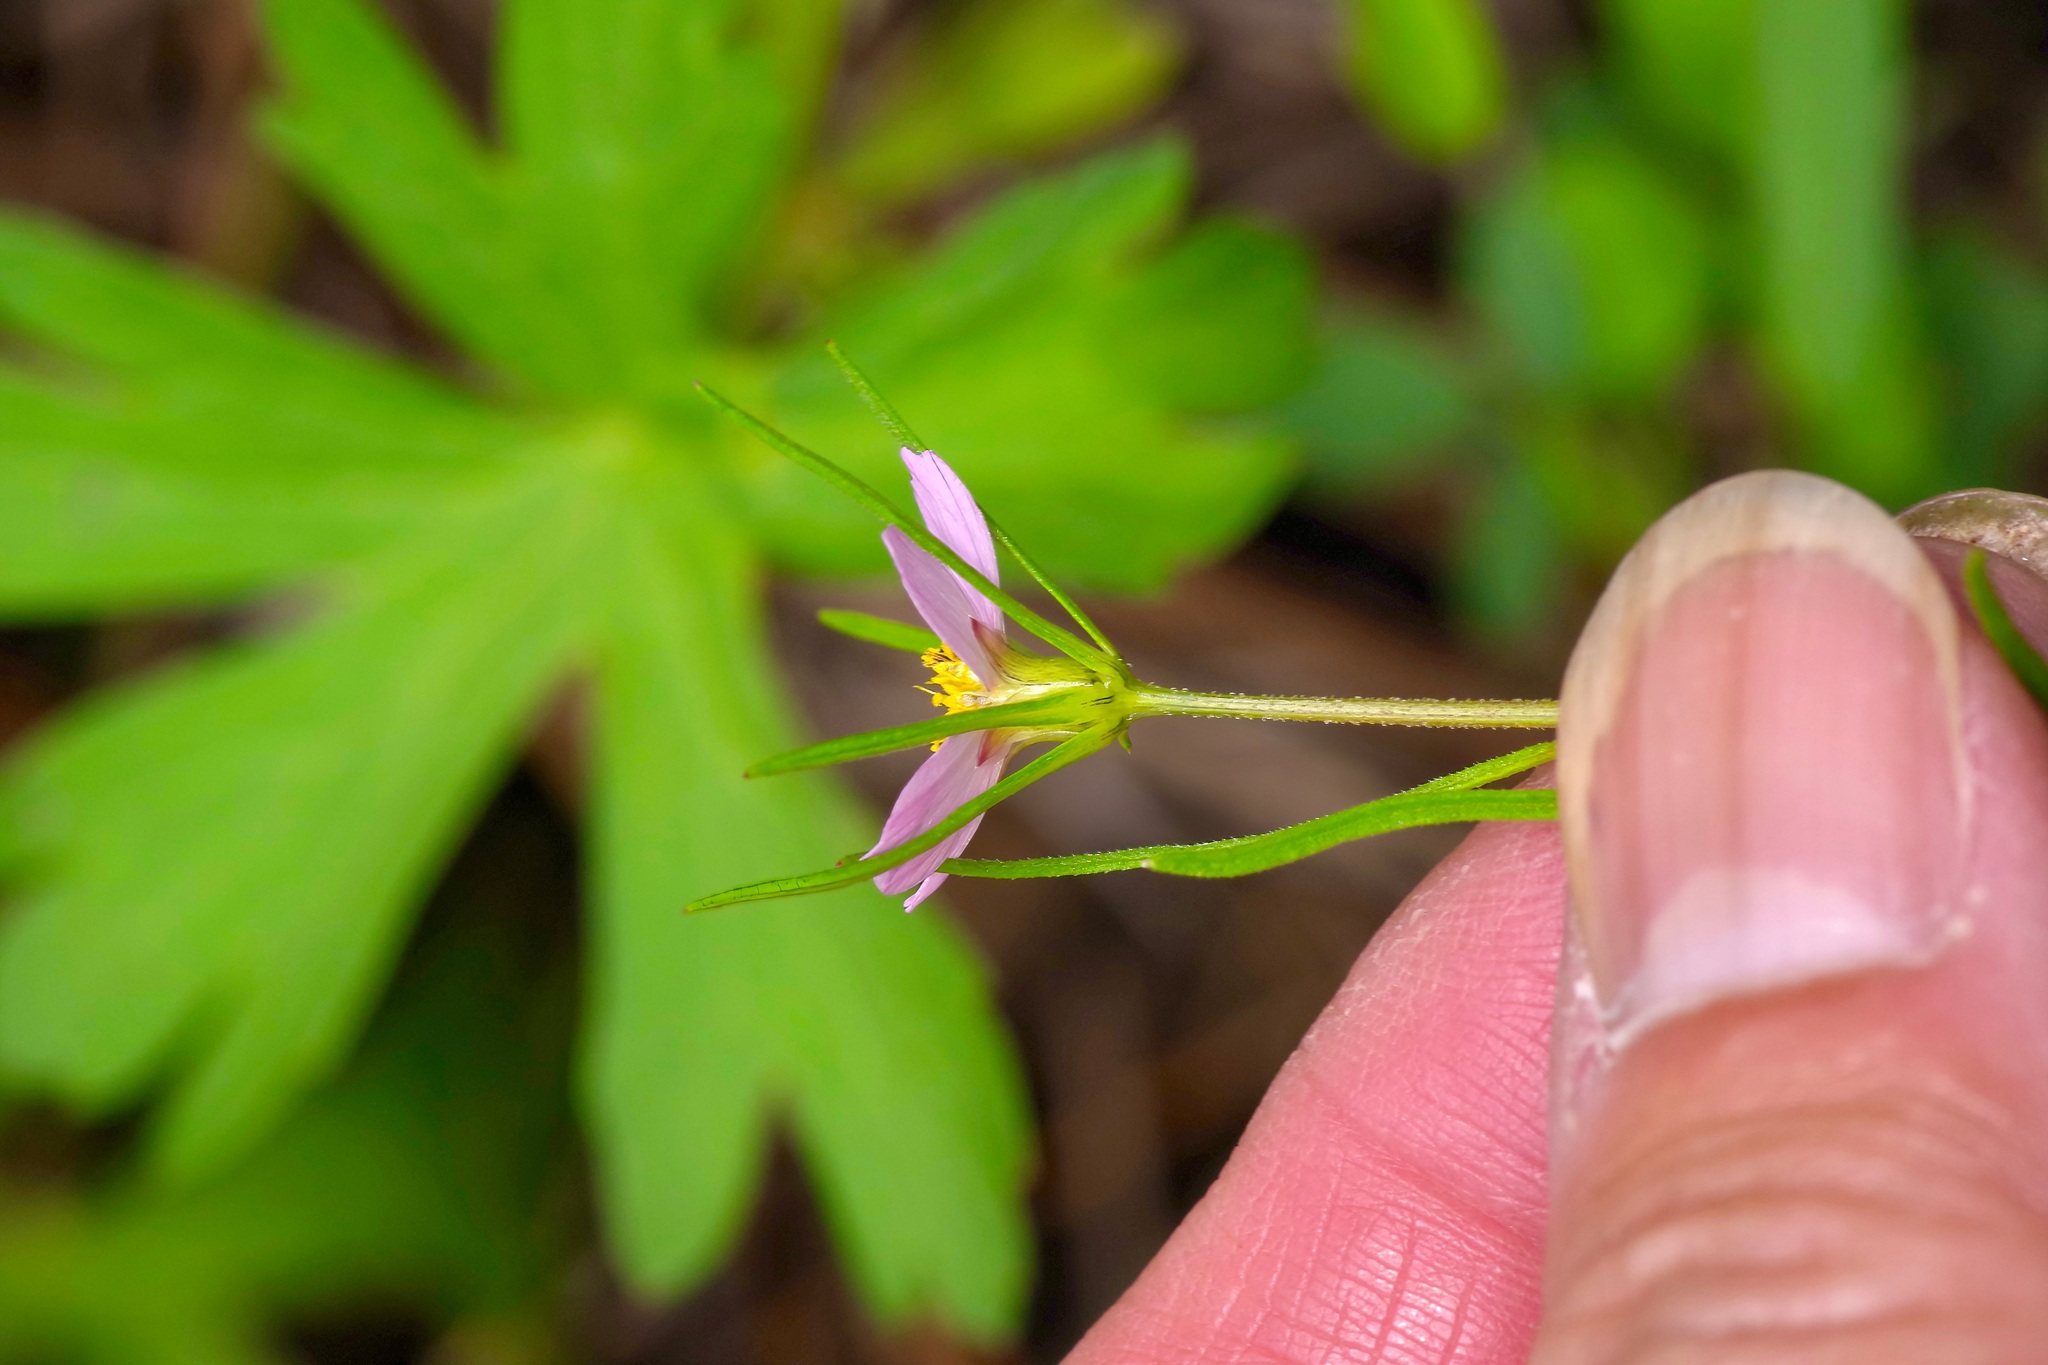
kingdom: Plantae
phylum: Tracheophyta
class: Magnoliopsida
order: Asterales
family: Asteraceae
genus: Cosmos
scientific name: Cosmos parviflorus
